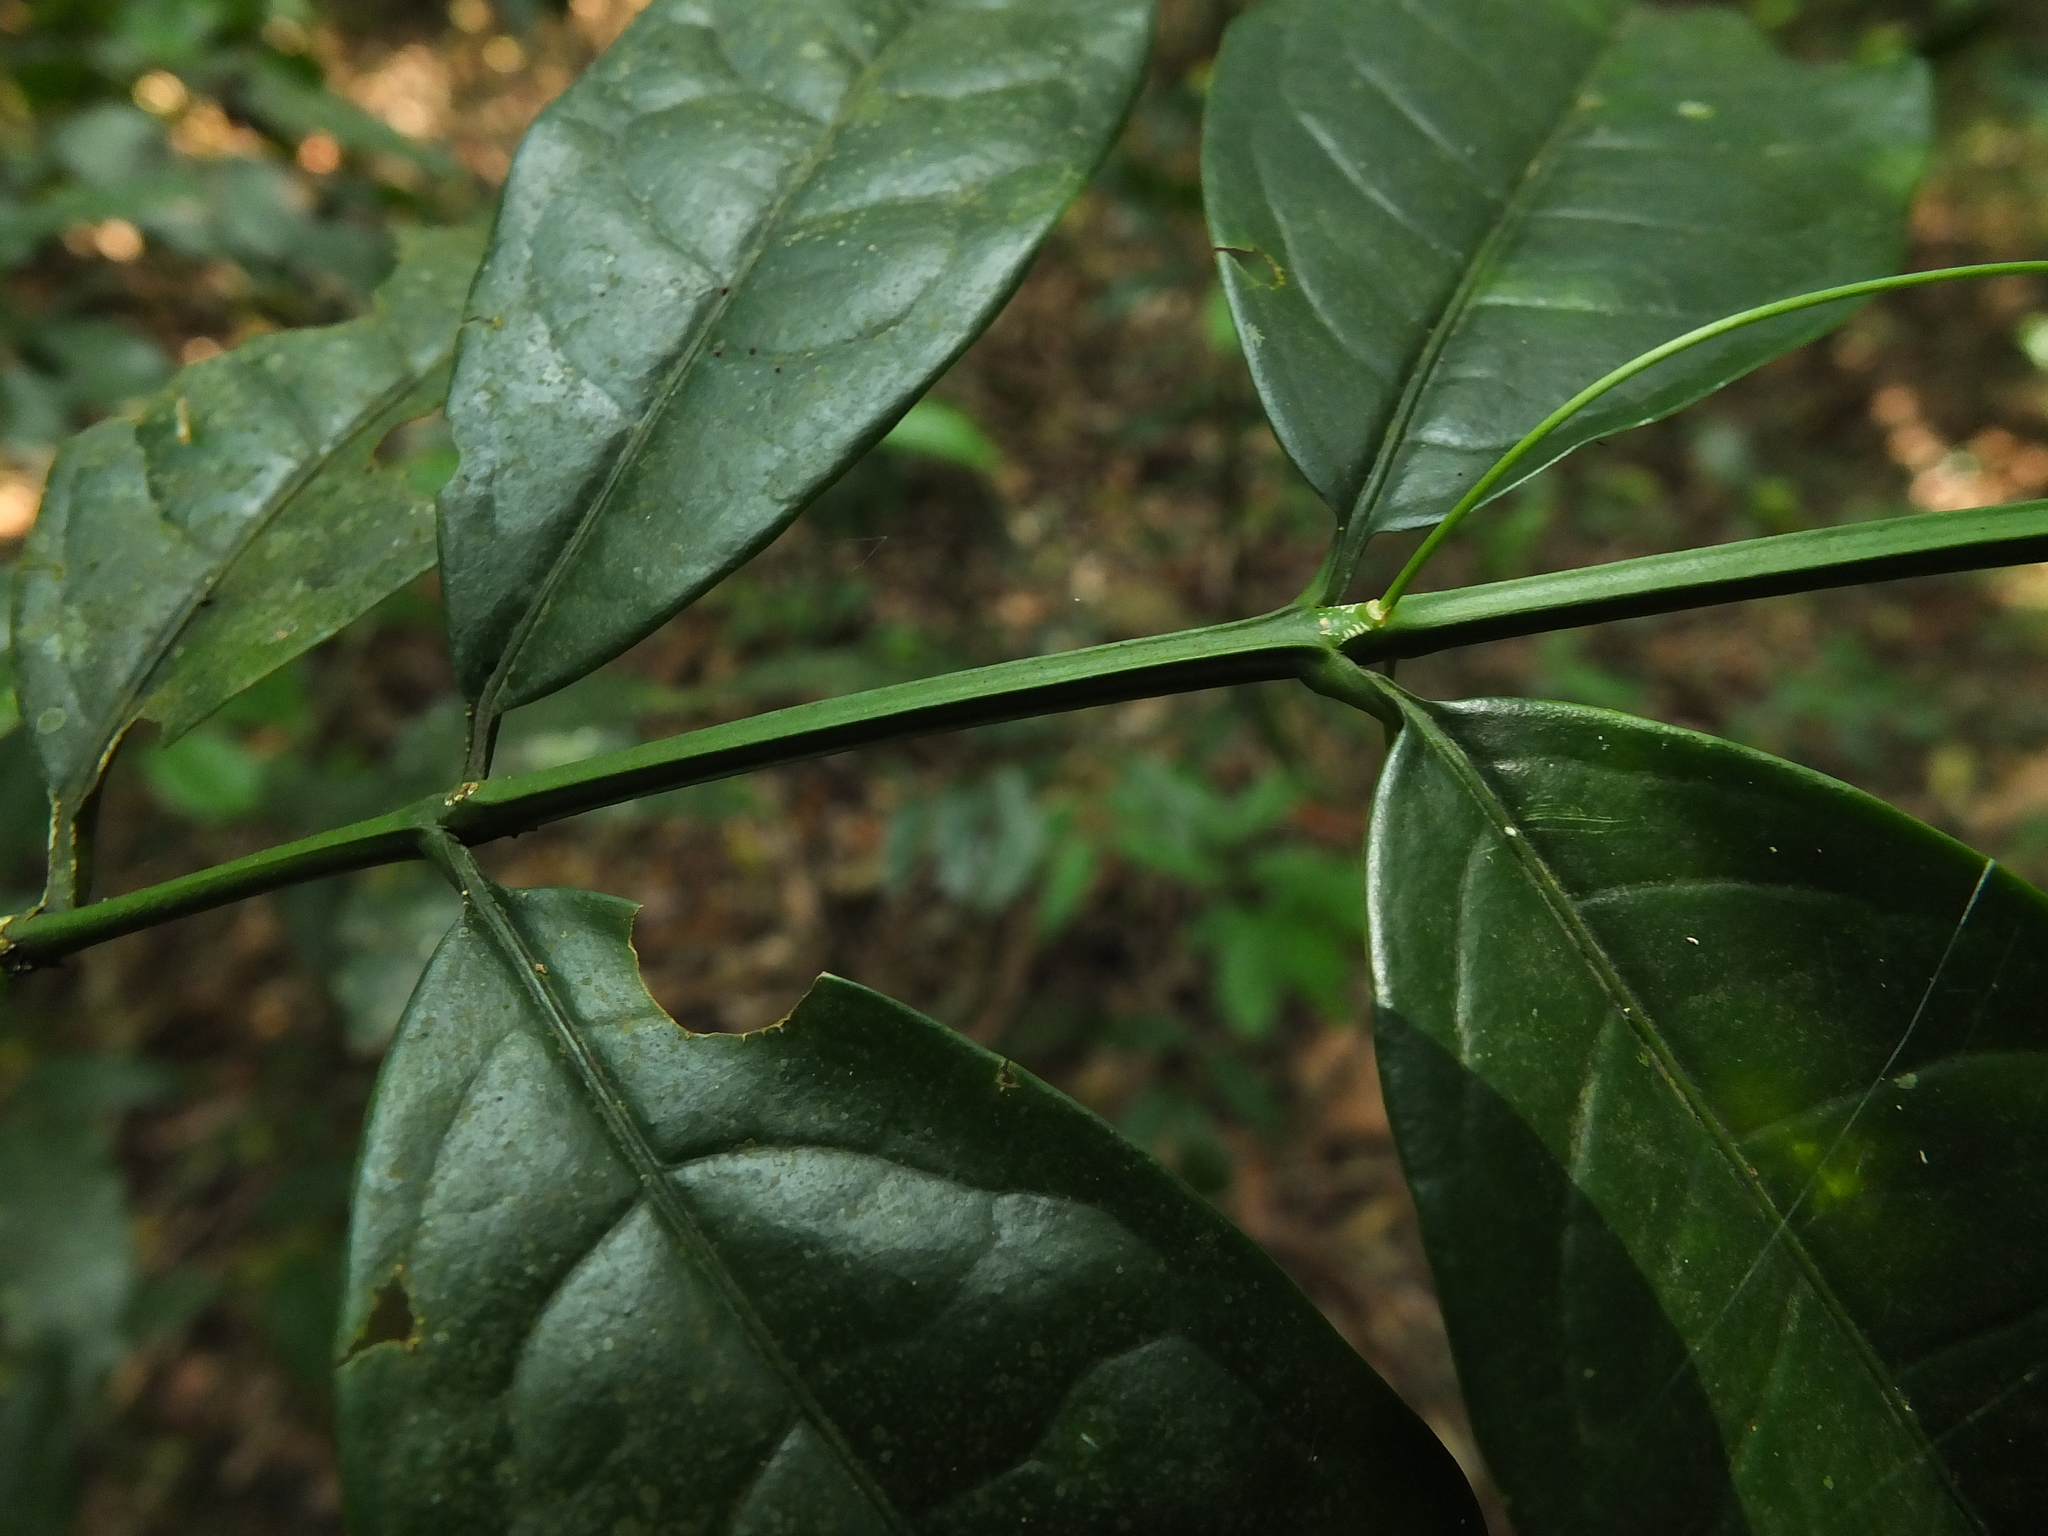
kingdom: Plantae
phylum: Tracheophyta
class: Magnoliopsida
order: Celastrales
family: Celastraceae
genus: Euonymus
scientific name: Euonymus grandiflorus
